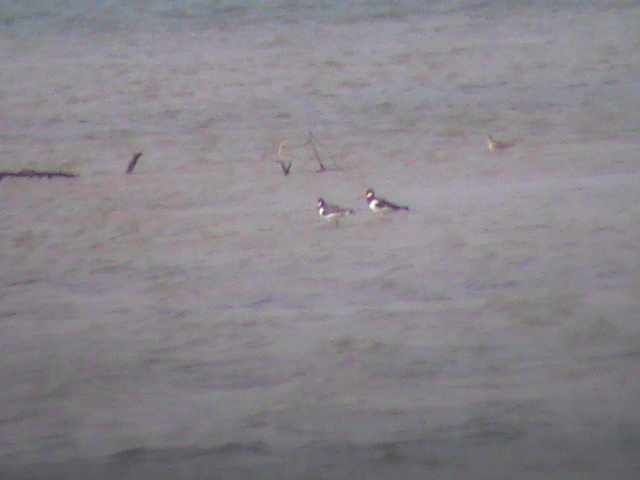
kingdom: Animalia
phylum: Chordata
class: Aves
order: Charadriiformes
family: Haematopodidae
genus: Haematopus
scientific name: Haematopus ostralegus
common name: Eurasian oystercatcher
